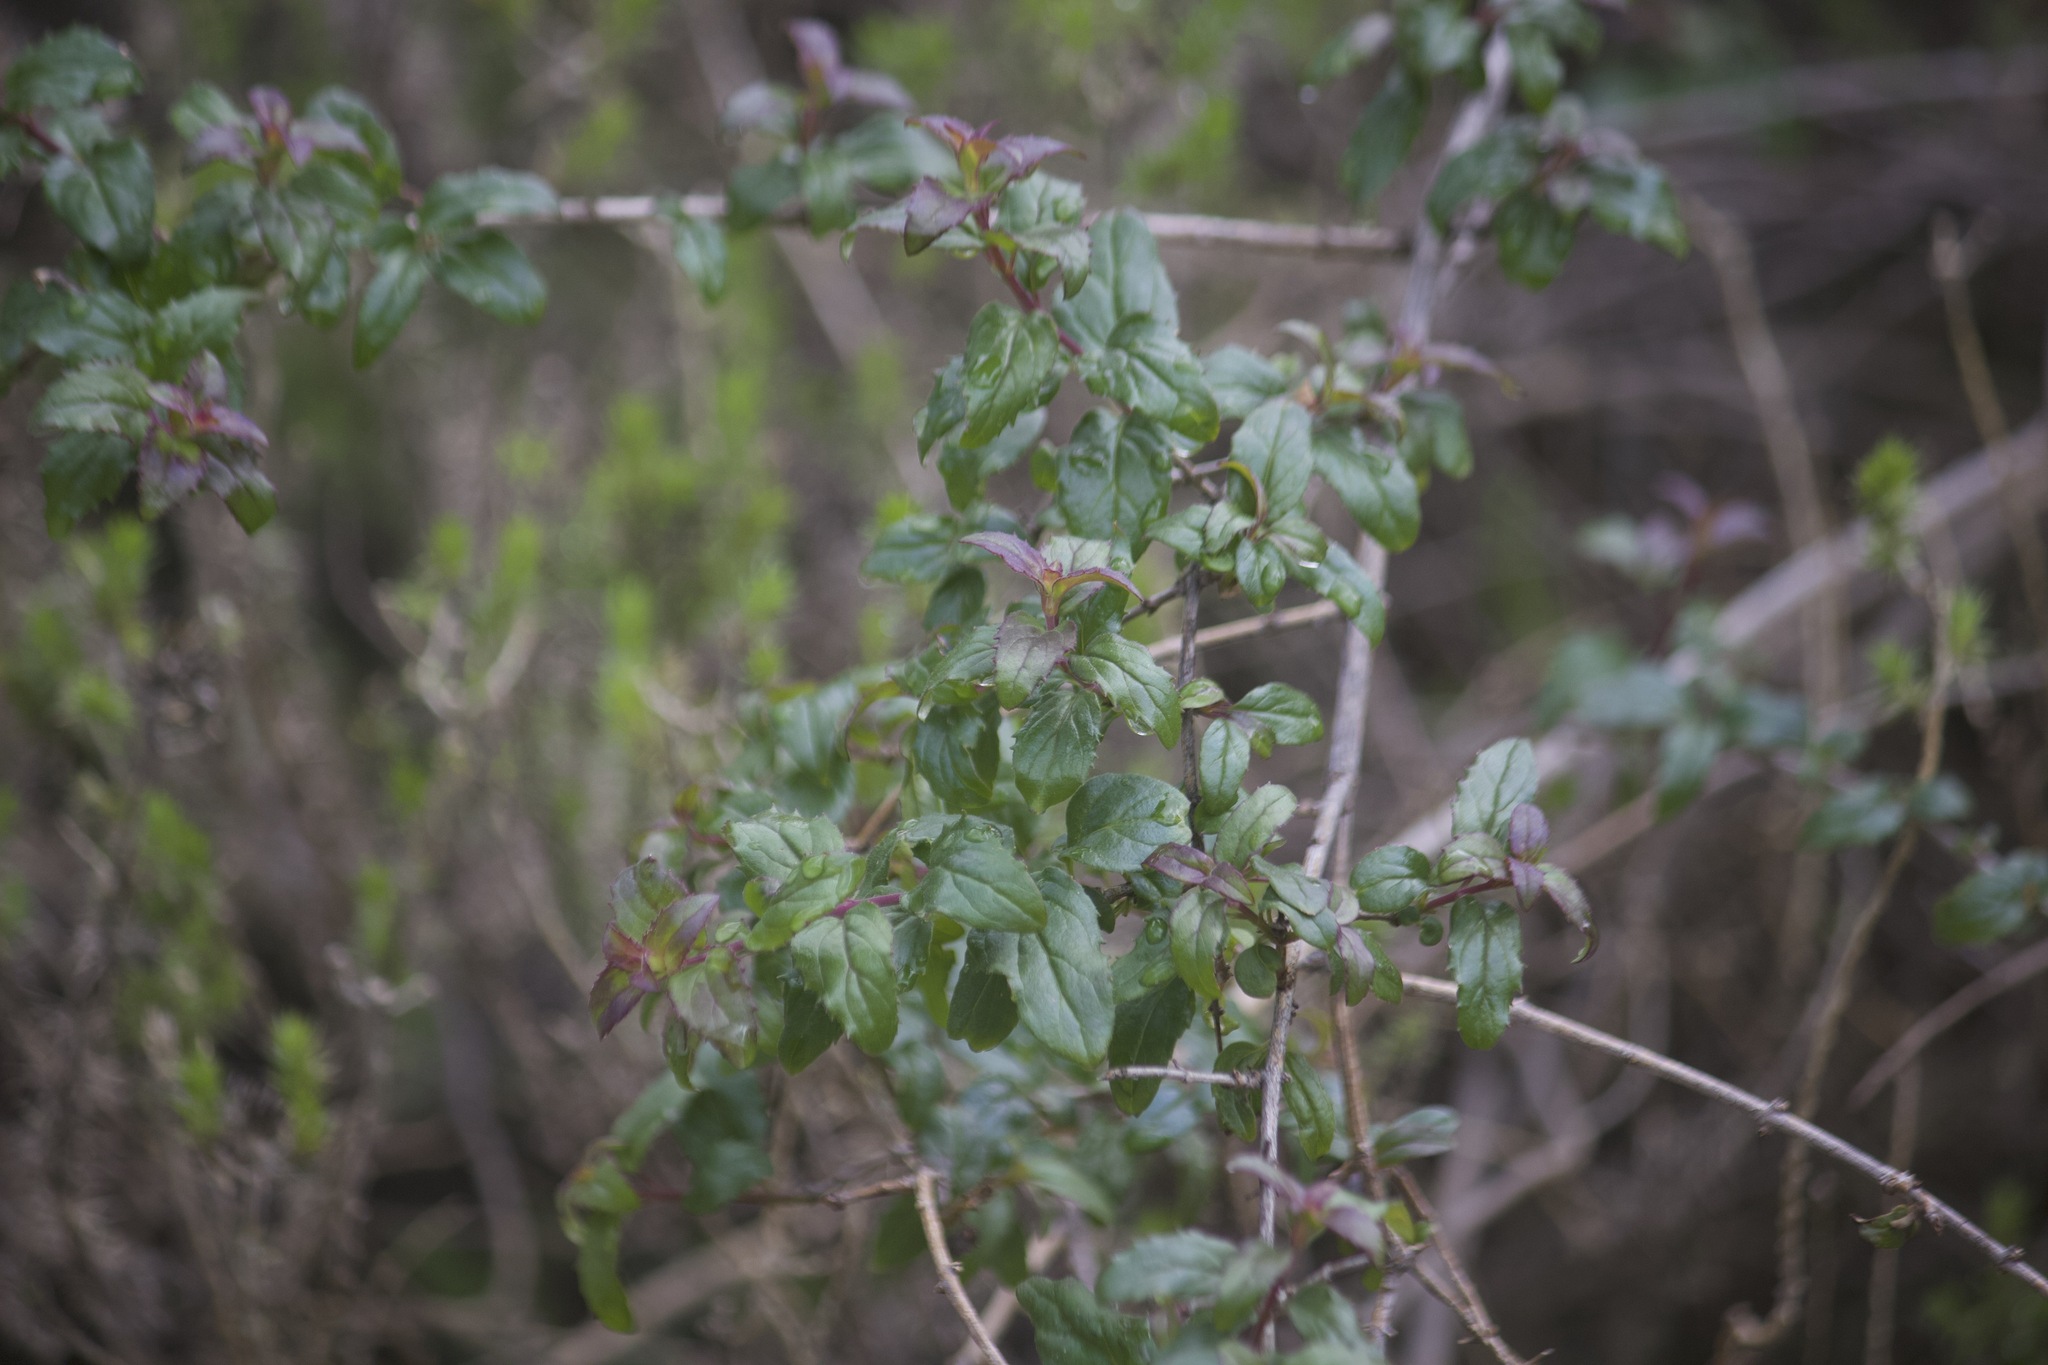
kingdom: Plantae
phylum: Tracheophyta
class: Magnoliopsida
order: Lamiales
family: Plantaginaceae
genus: Keckiella
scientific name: Keckiella cordifolia
